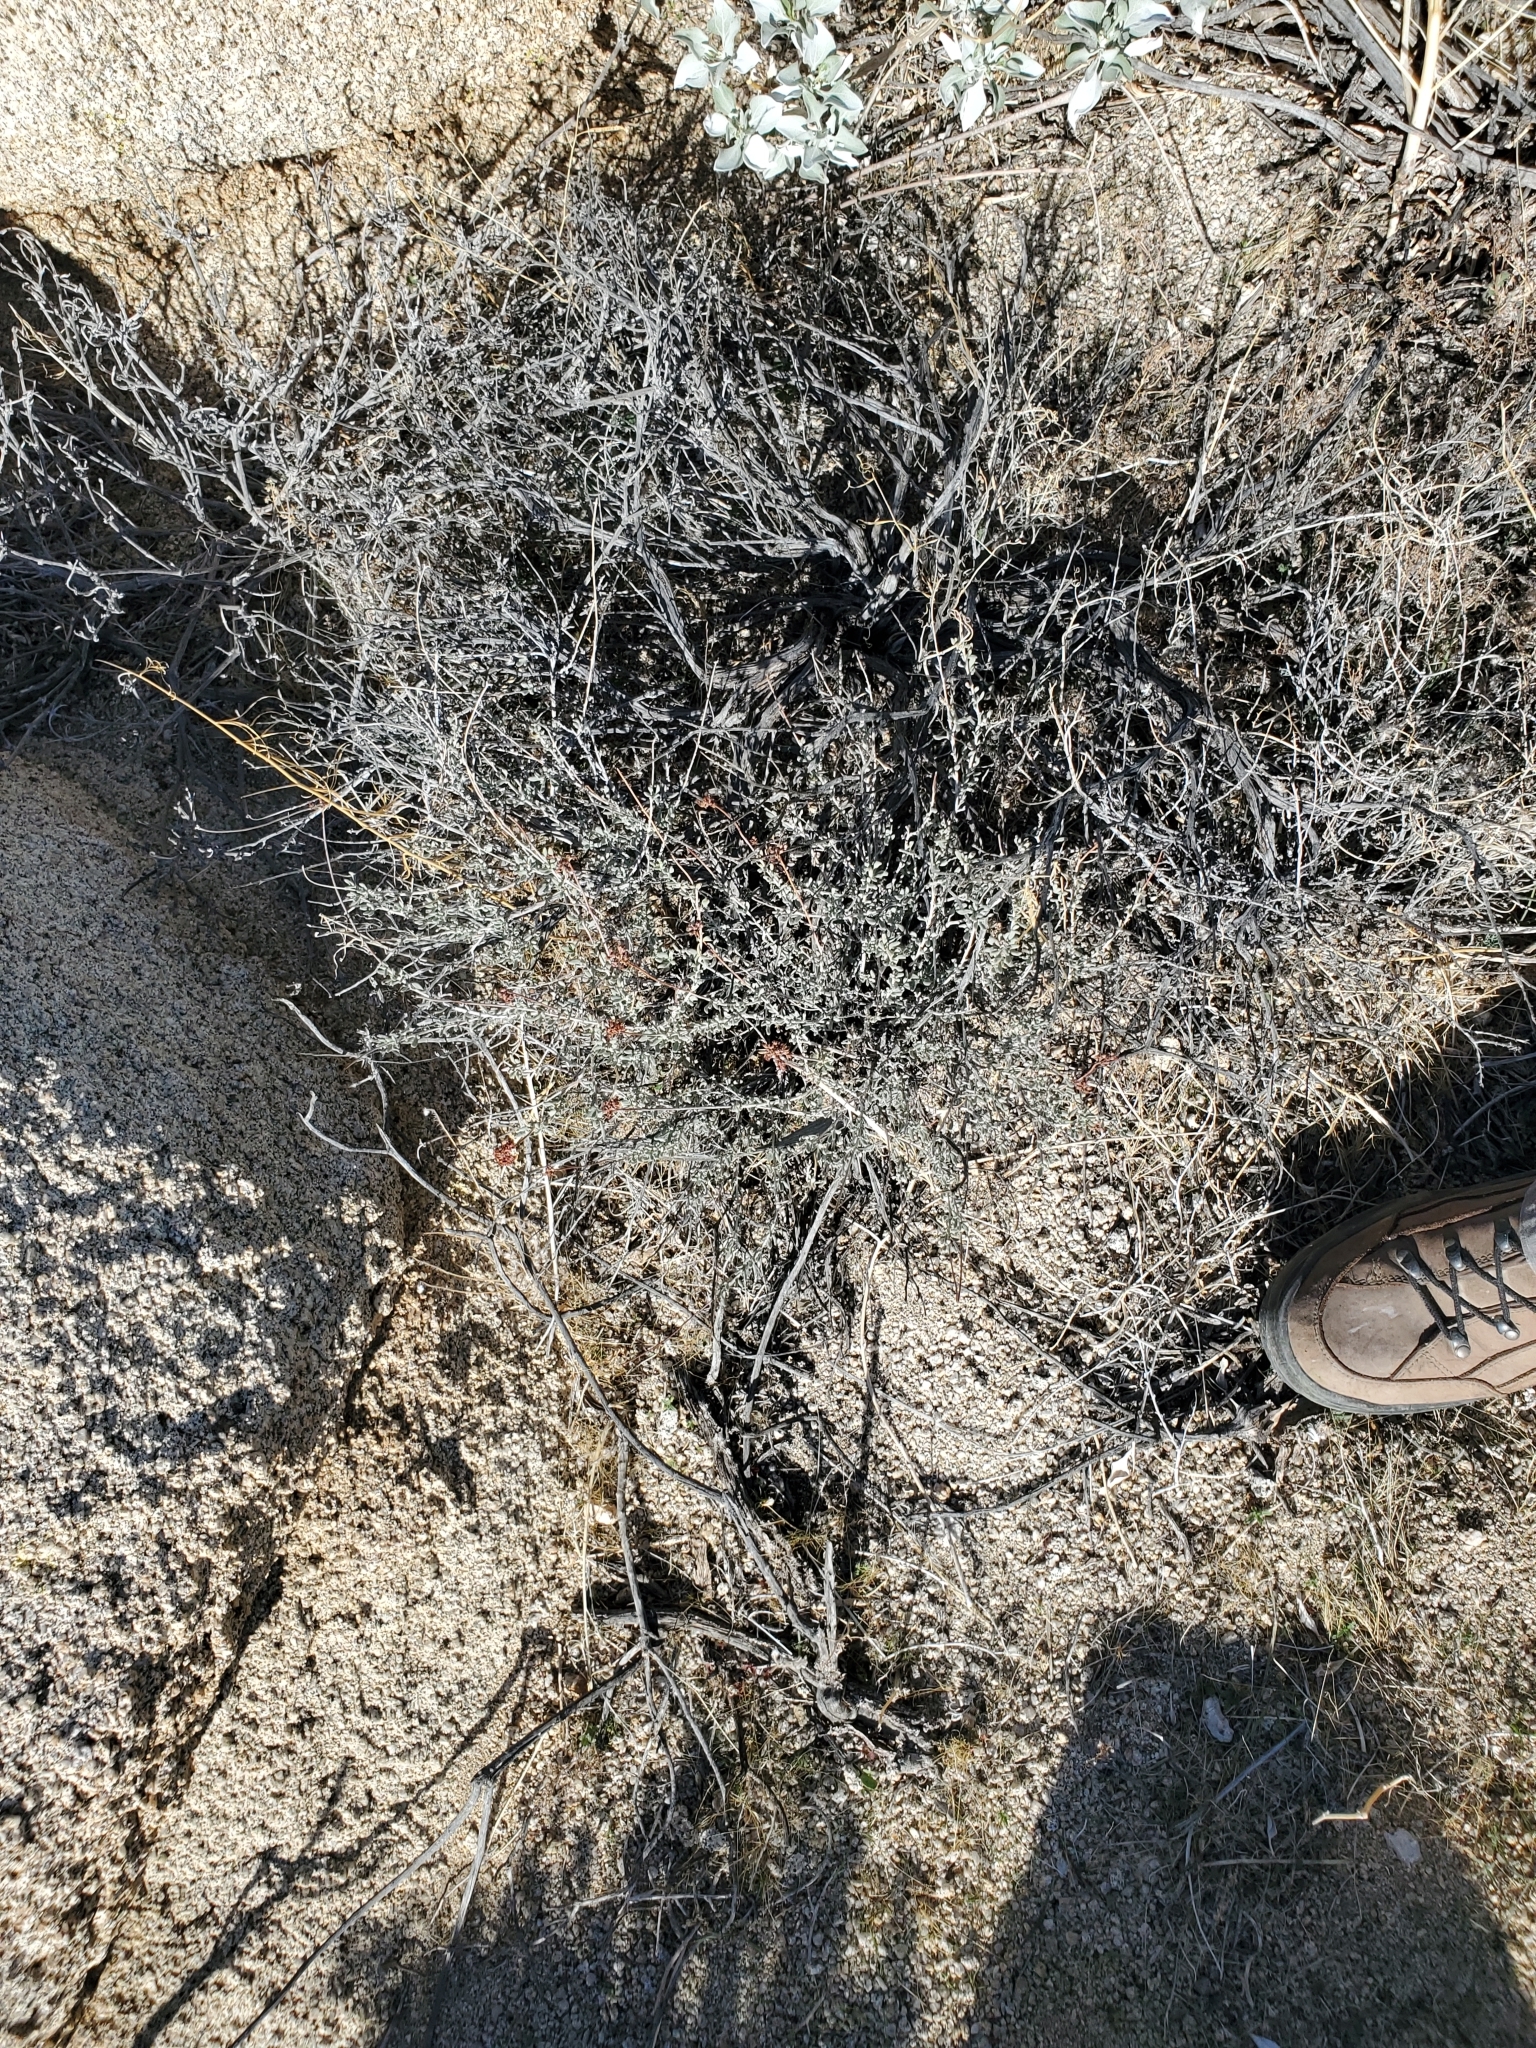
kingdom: Plantae
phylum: Tracheophyta
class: Magnoliopsida
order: Caryophyllales
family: Polygonaceae
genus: Eriogonum
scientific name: Eriogonum fasciculatum
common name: California wild buckwheat
